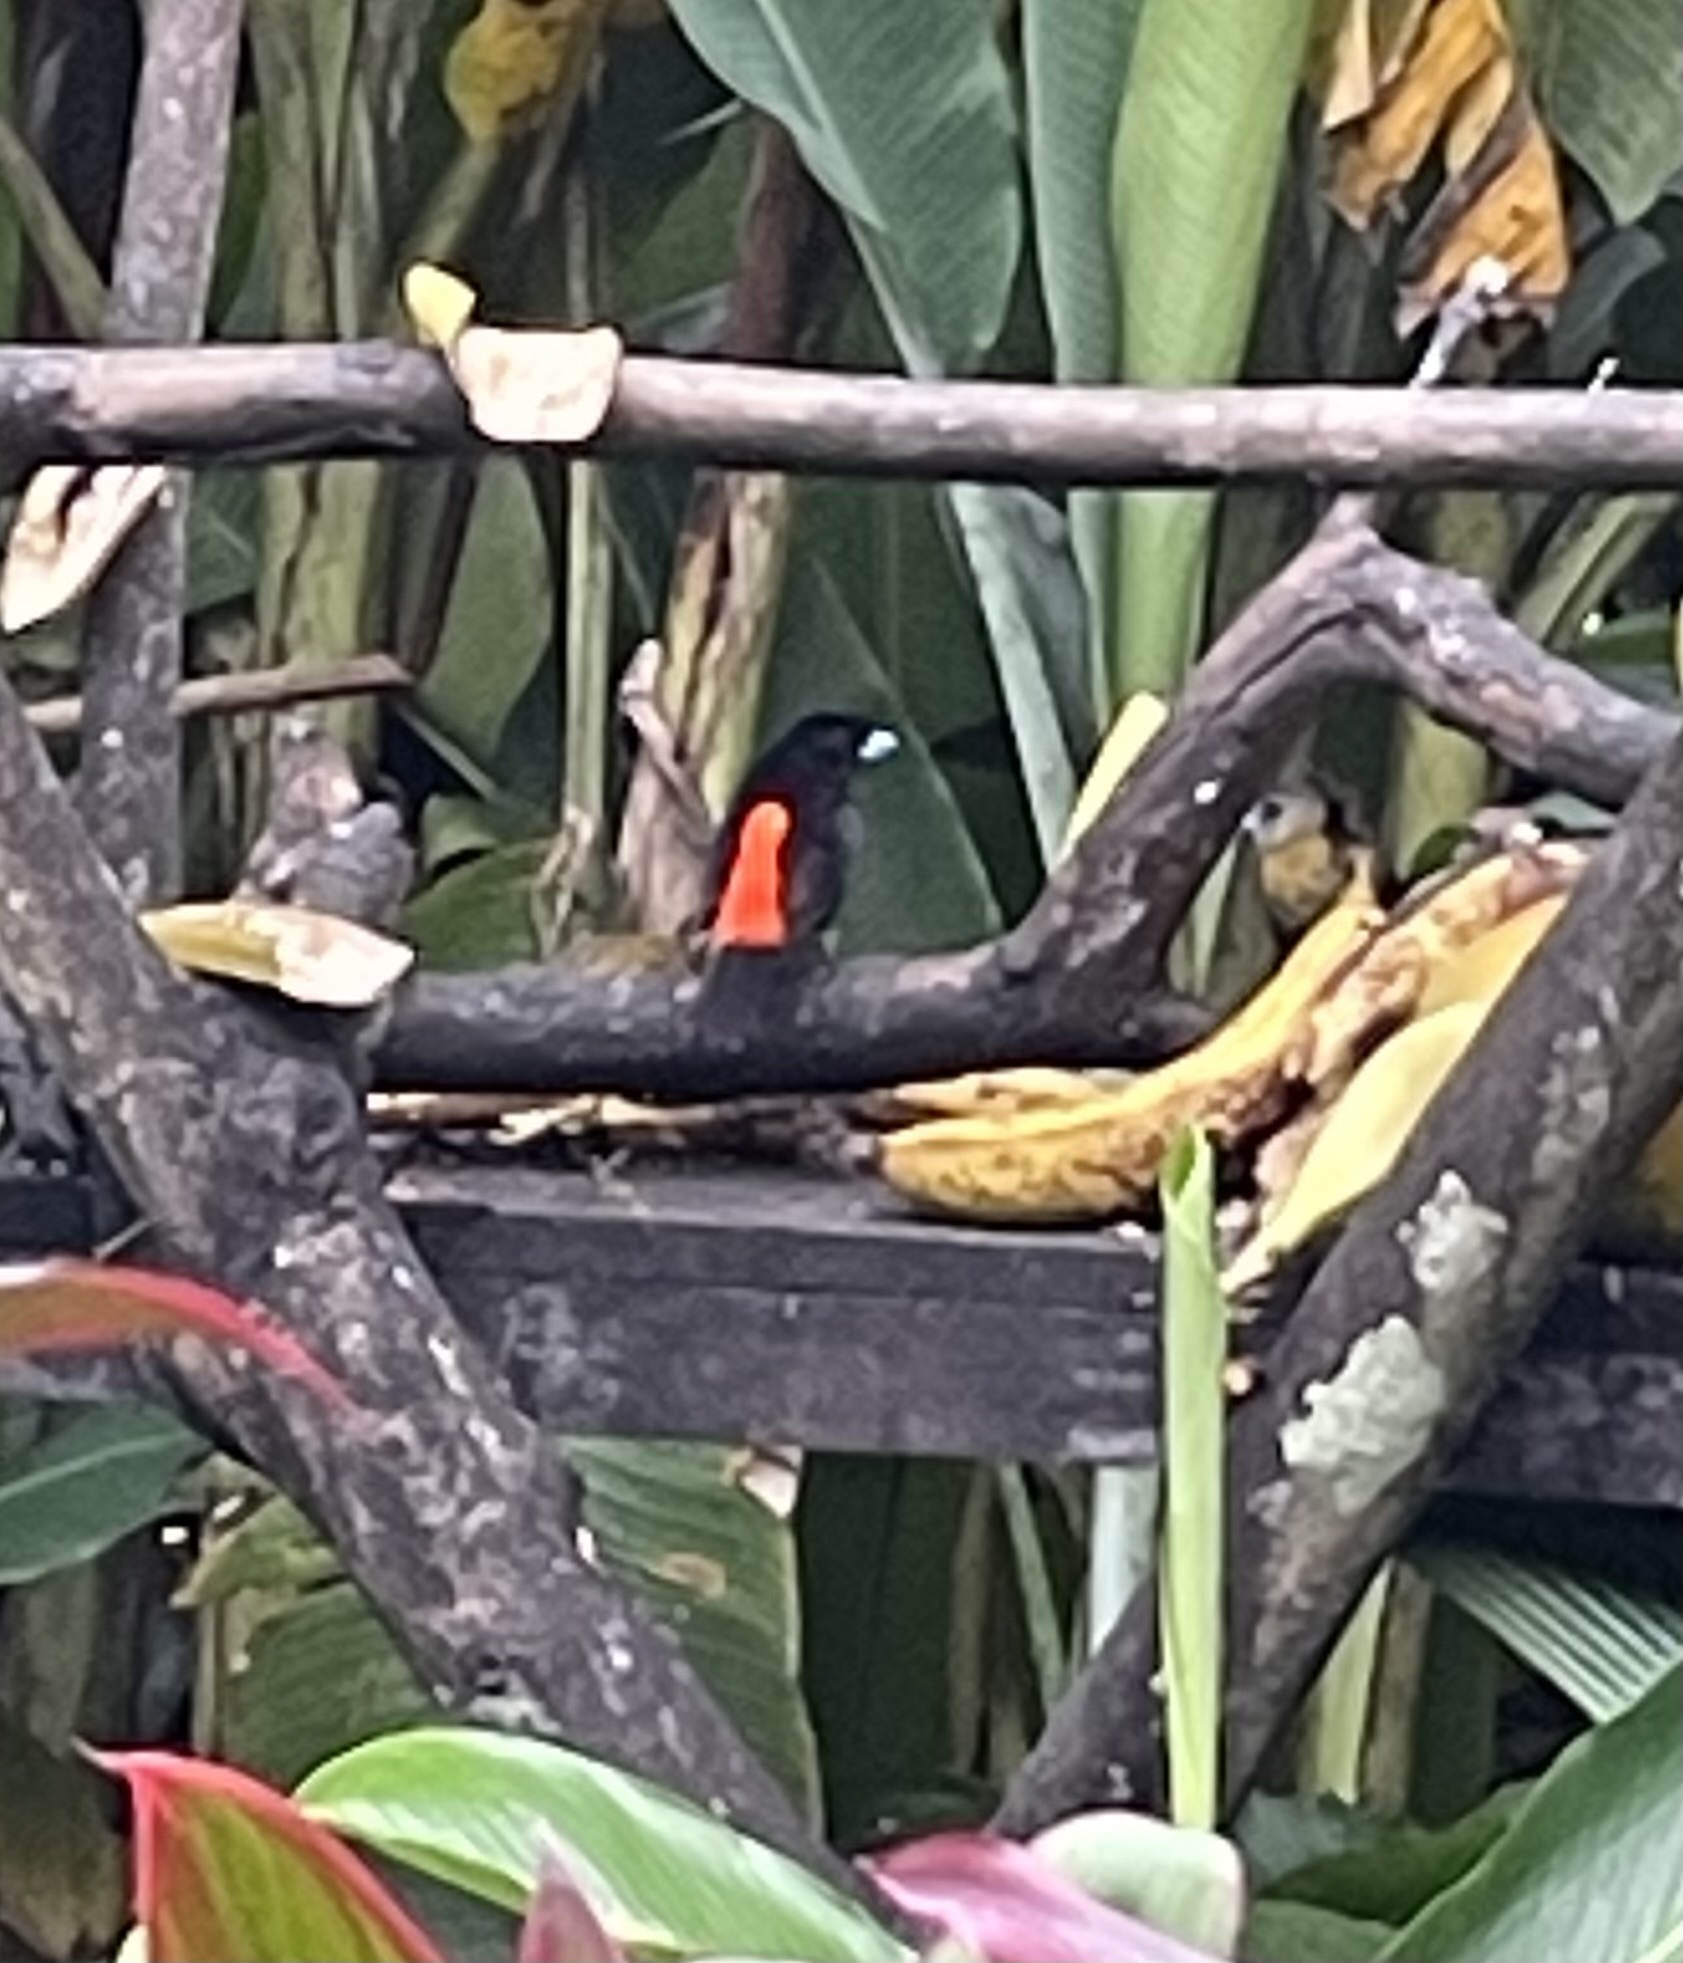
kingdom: Animalia
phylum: Chordata
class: Aves
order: Passeriformes
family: Thraupidae
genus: Ramphocelus
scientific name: Ramphocelus passerinii
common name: Passerini's tanager
